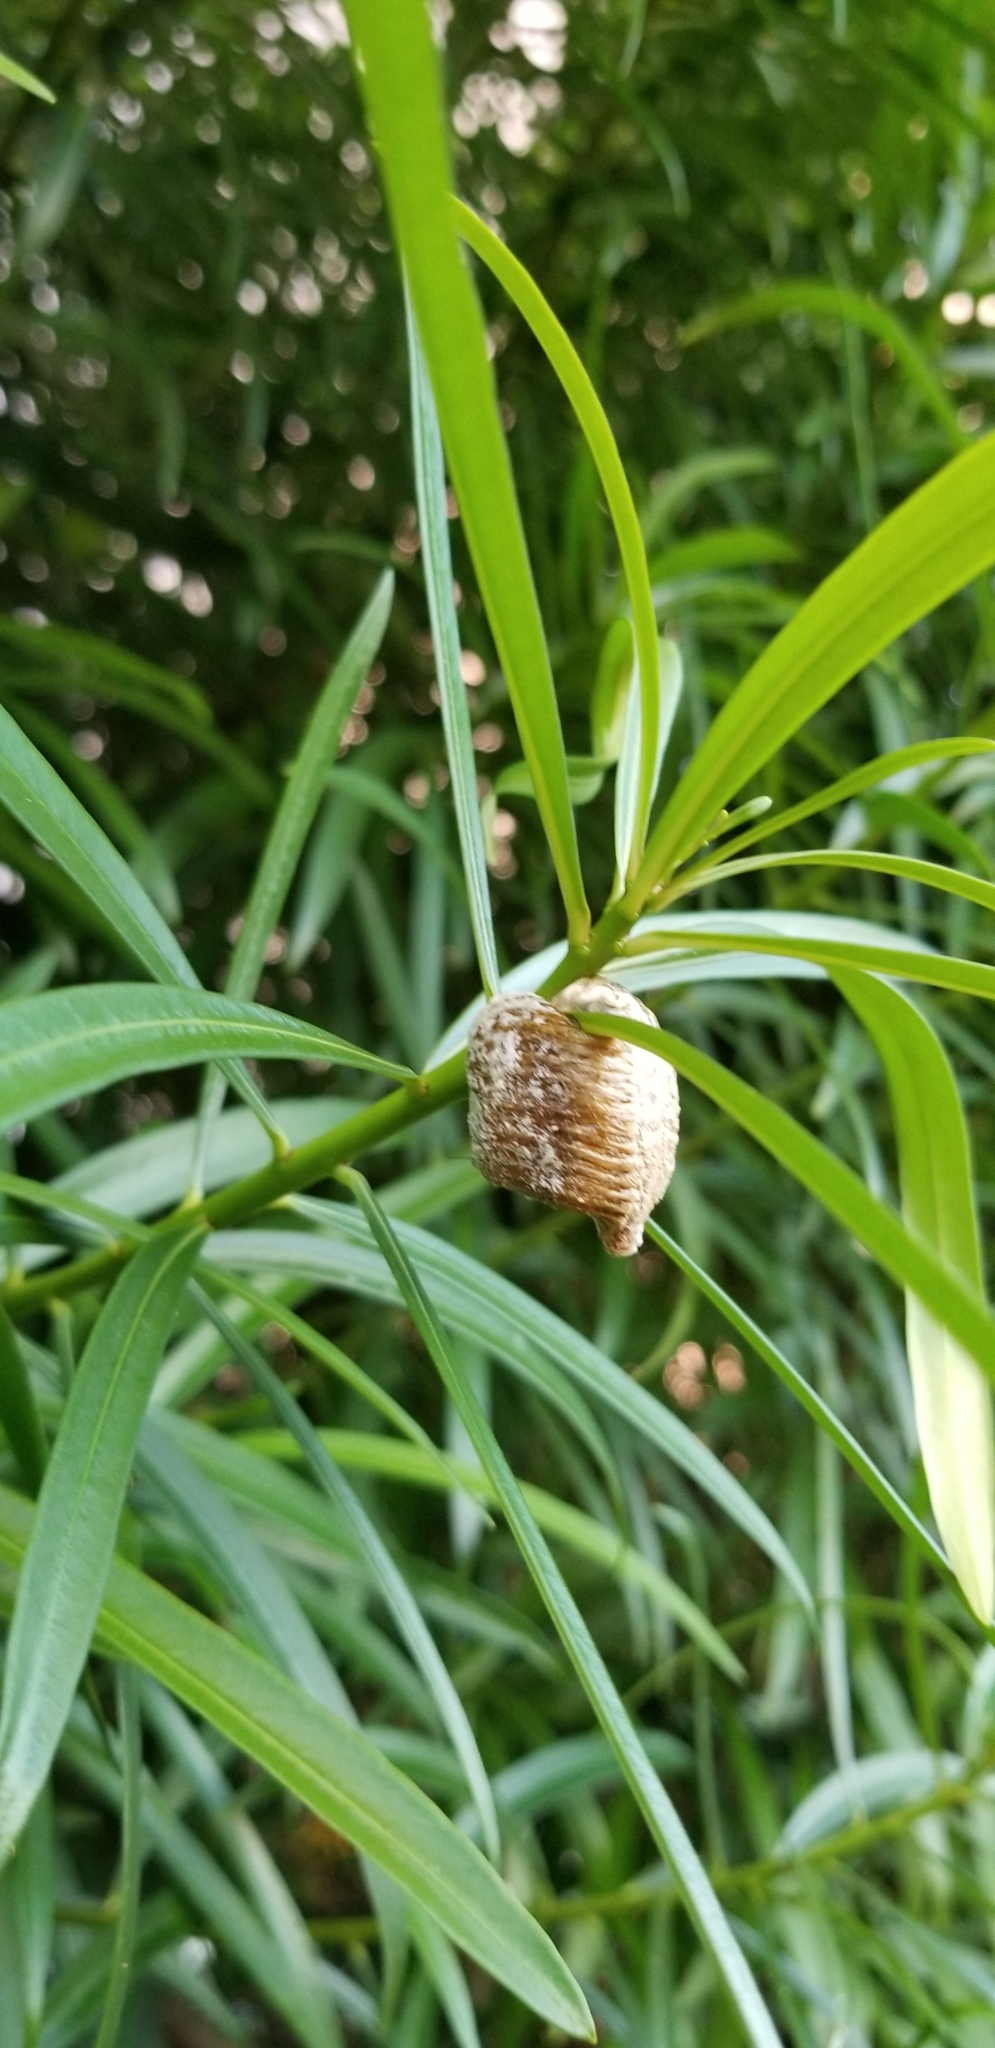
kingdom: Animalia
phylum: Arthropoda
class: Insecta
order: Hymenoptera
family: Torymidae
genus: Podagrion
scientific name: Podagrion mantis
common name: Wasp
